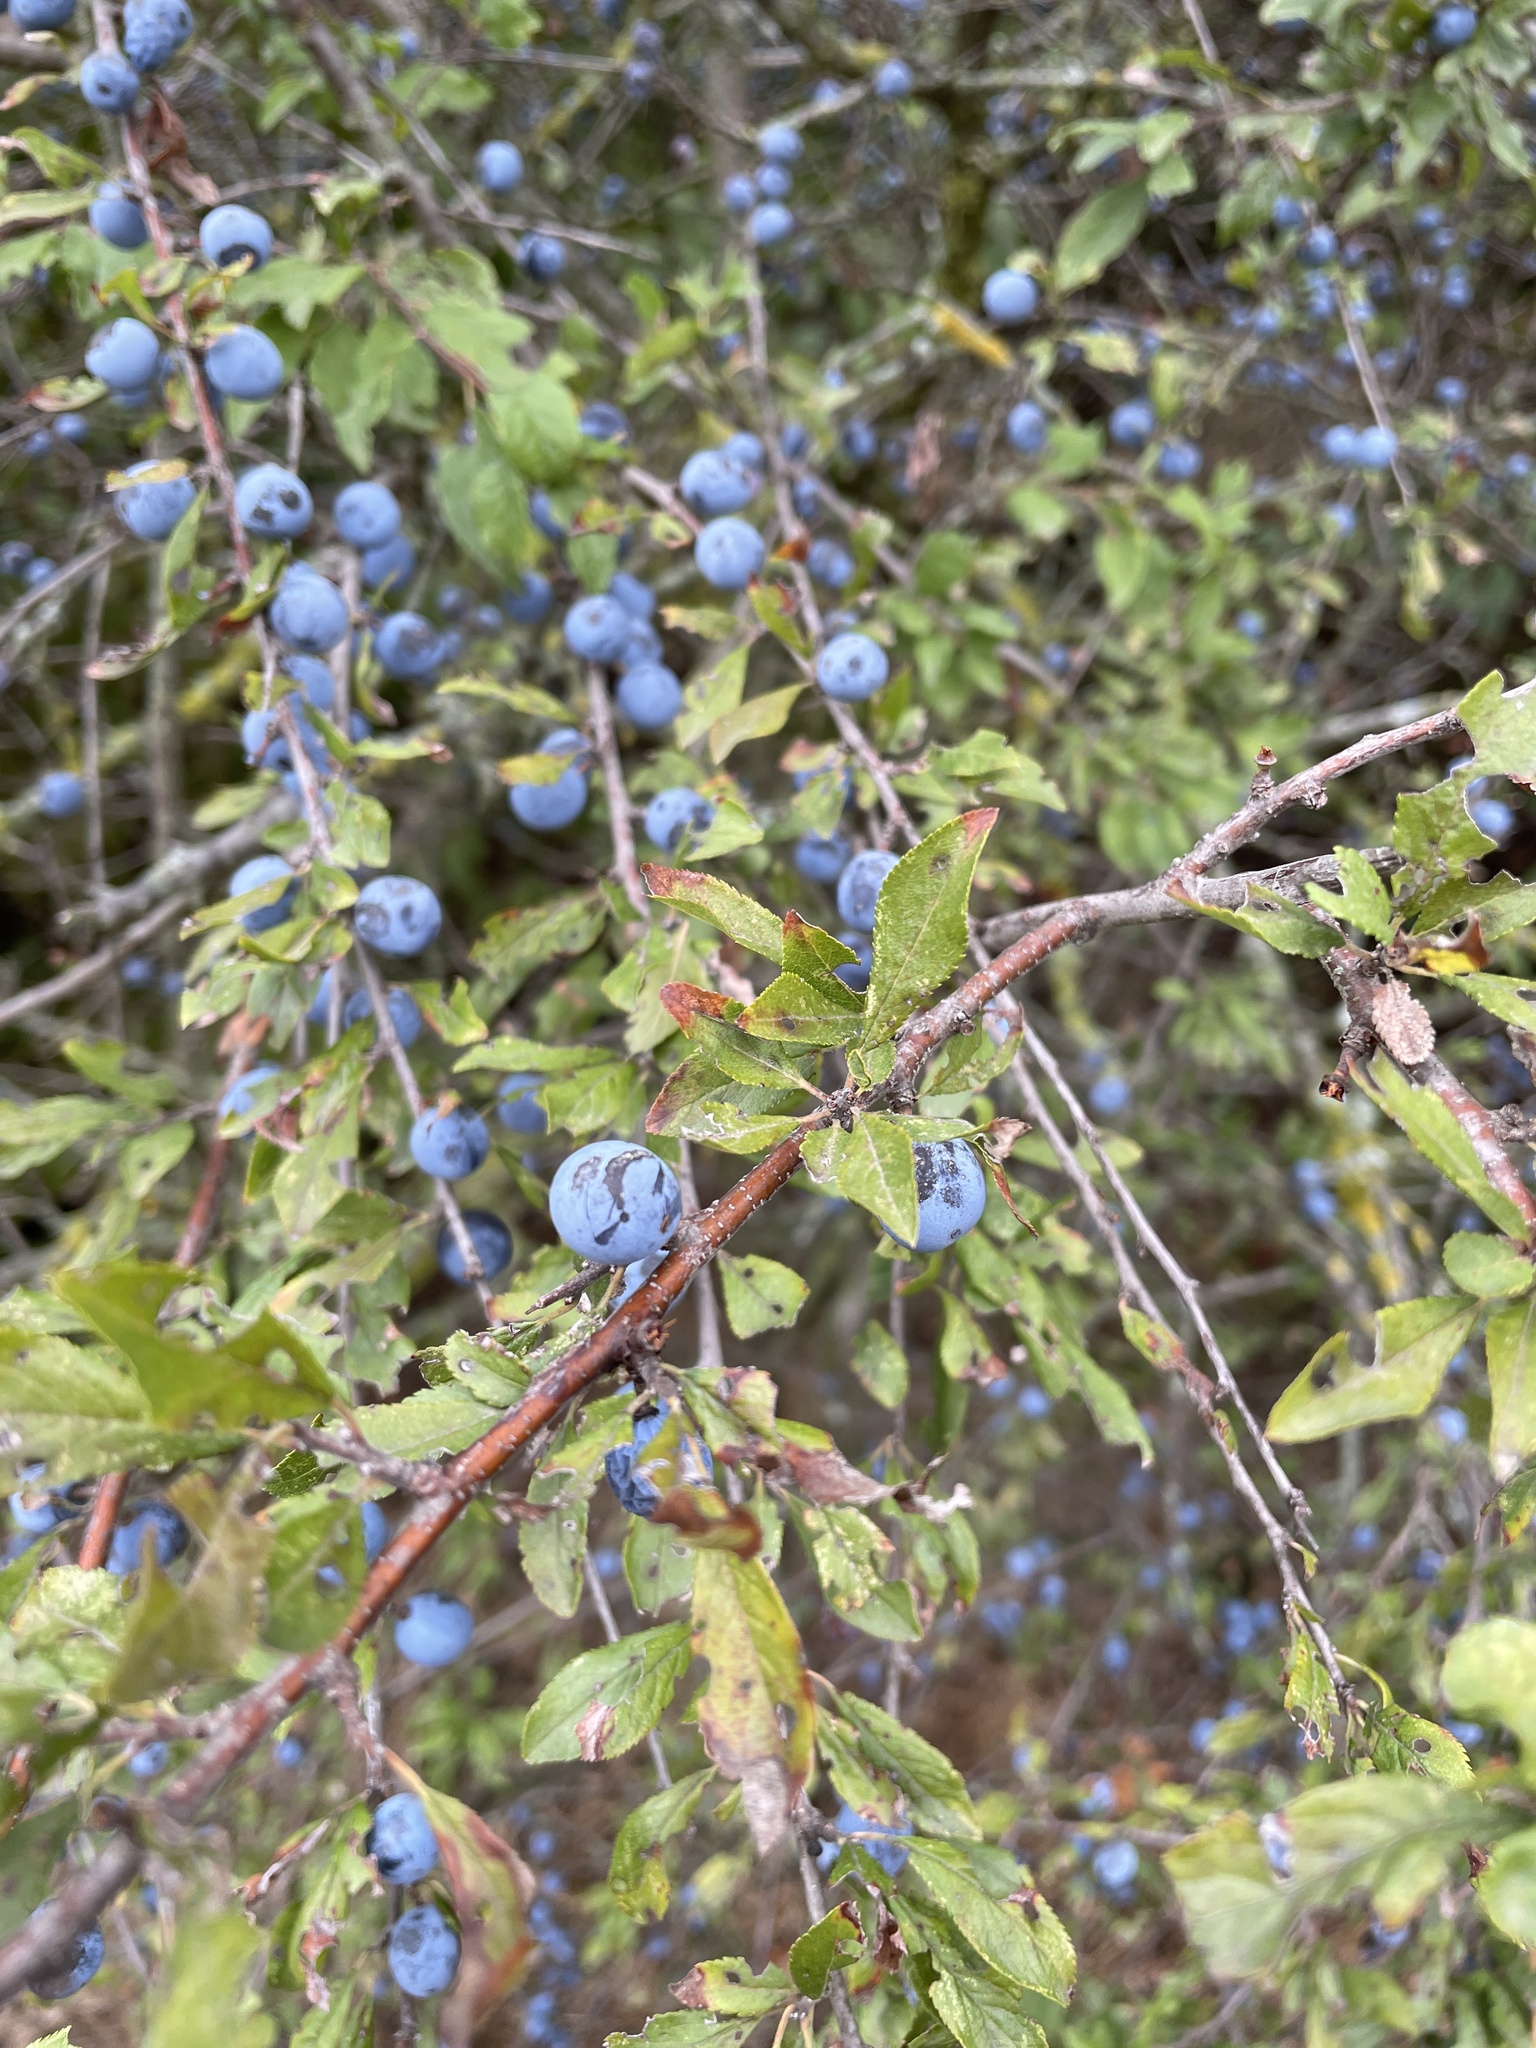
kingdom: Plantae
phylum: Tracheophyta
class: Magnoliopsida
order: Rosales
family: Rosaceae
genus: Prunus
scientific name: Prunus spinosa
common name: Blackthorn
